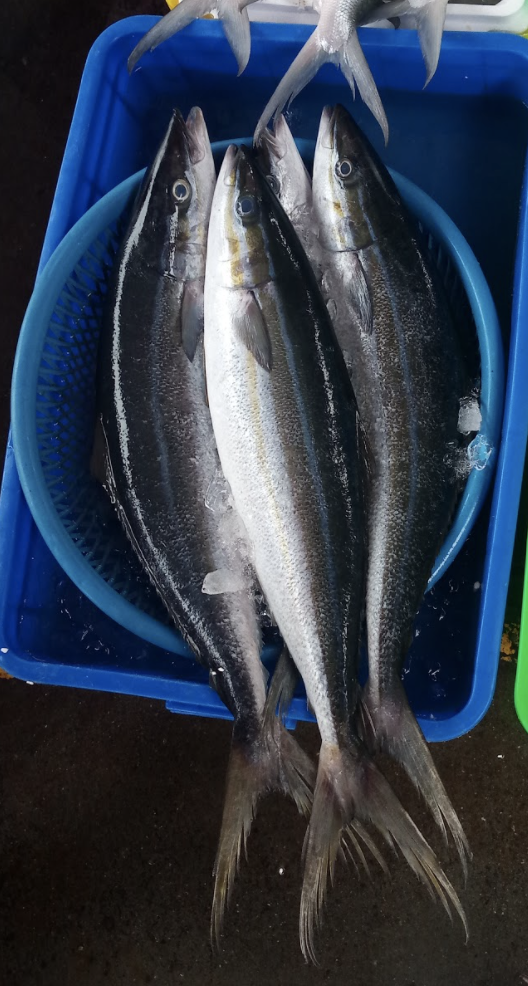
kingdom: Animalia
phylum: Chordata
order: Perciformes
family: Carangidae
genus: Elagatis
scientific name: Elagatis bipinnulata
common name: Rainbow runner
